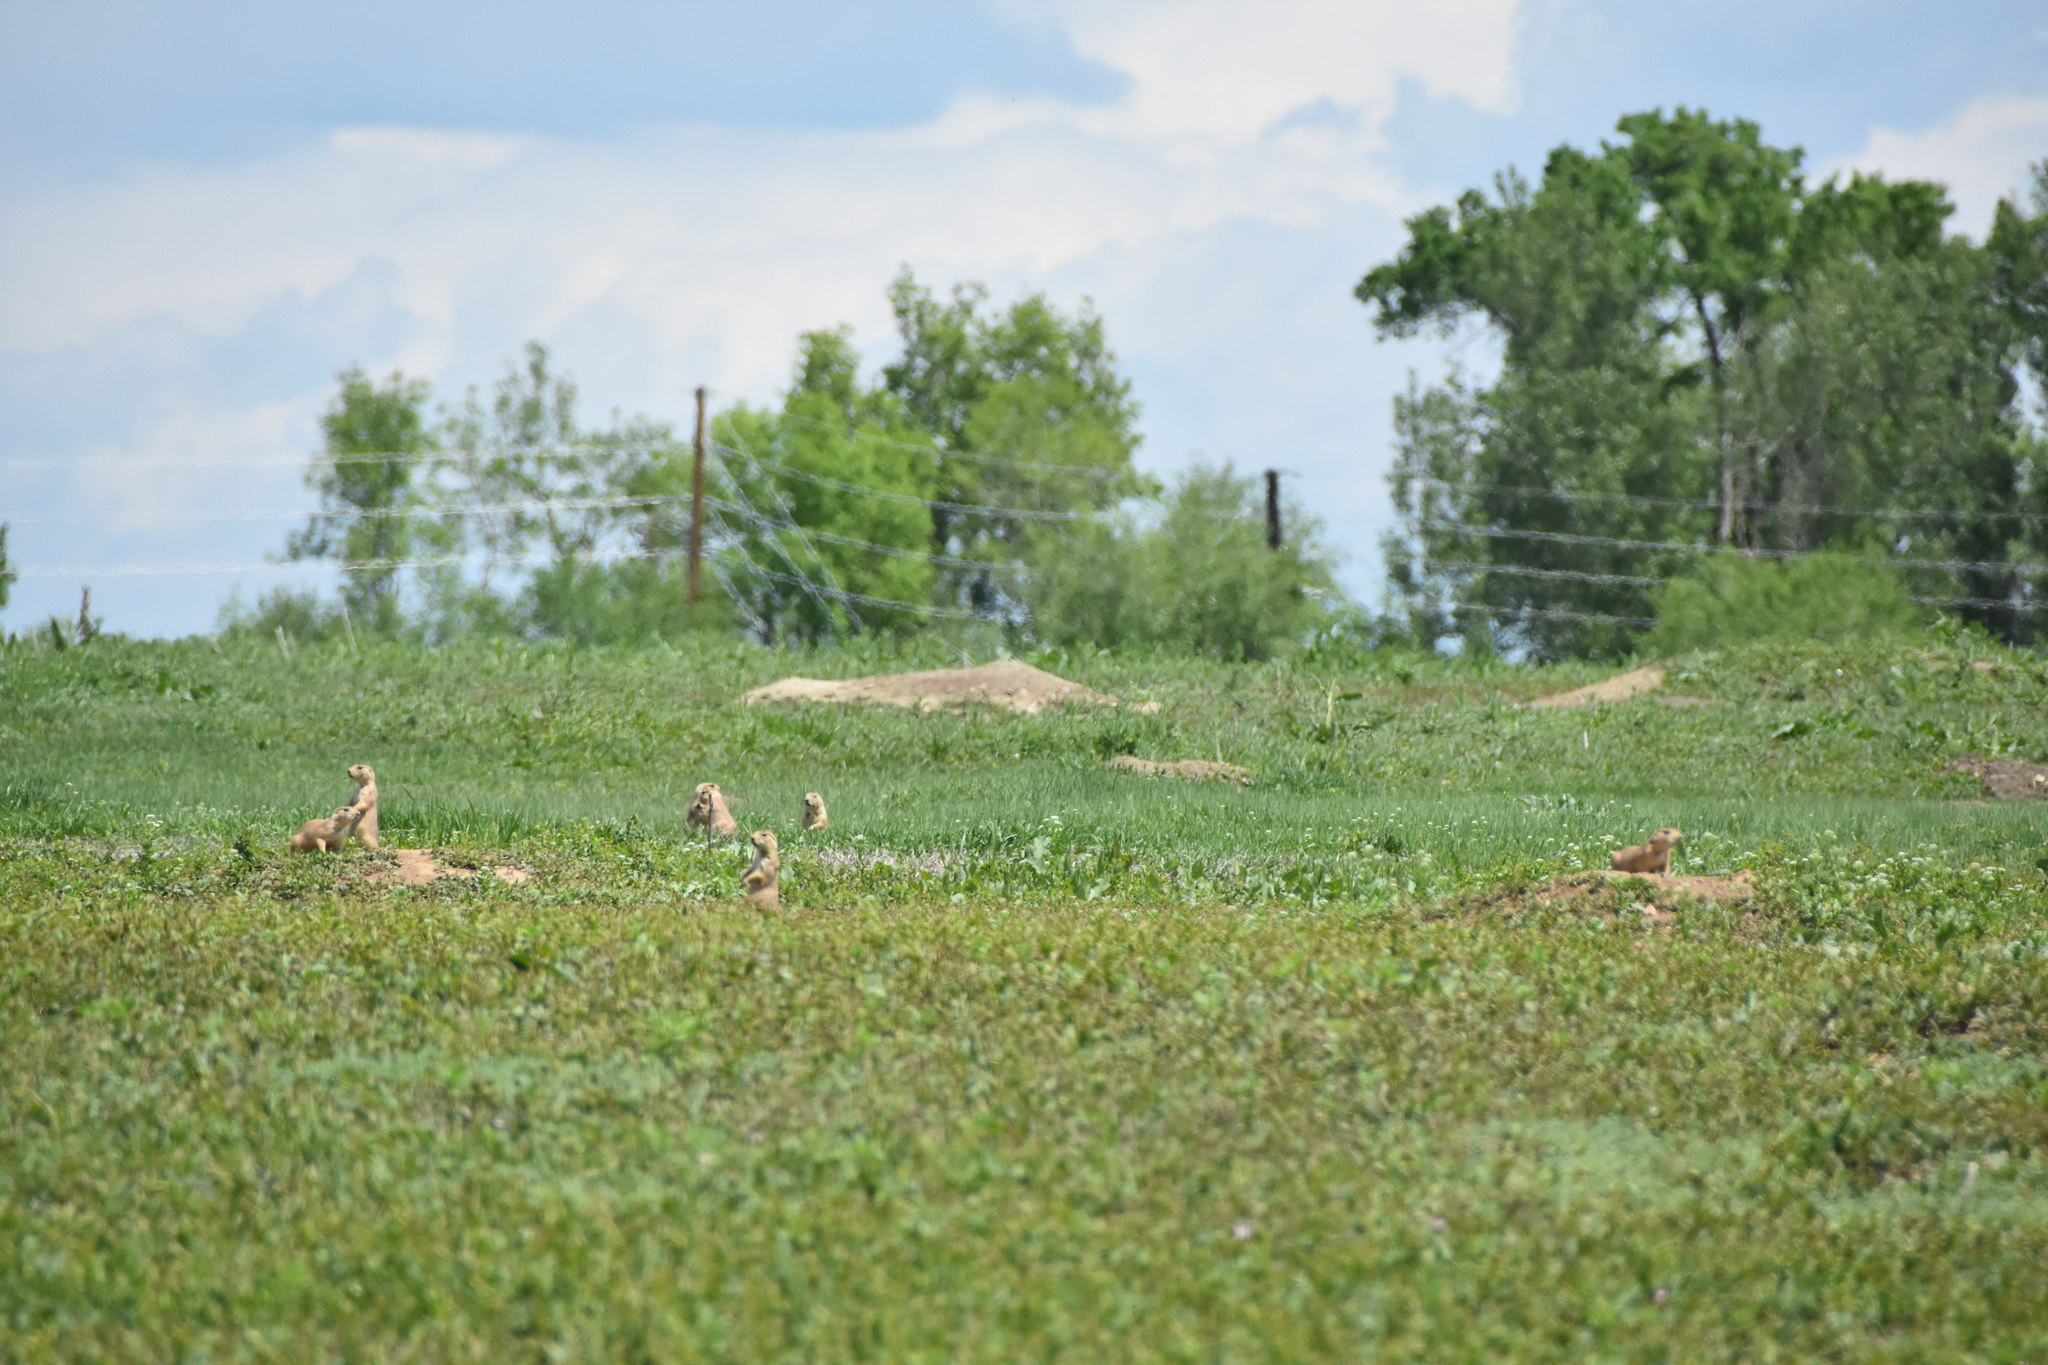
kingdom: Animalia
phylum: Chordata
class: Mammalia
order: Rodentia
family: Sciuridae
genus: Cynomys
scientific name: Cynomys ludovicianus
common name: Black-tailed prairie dog
